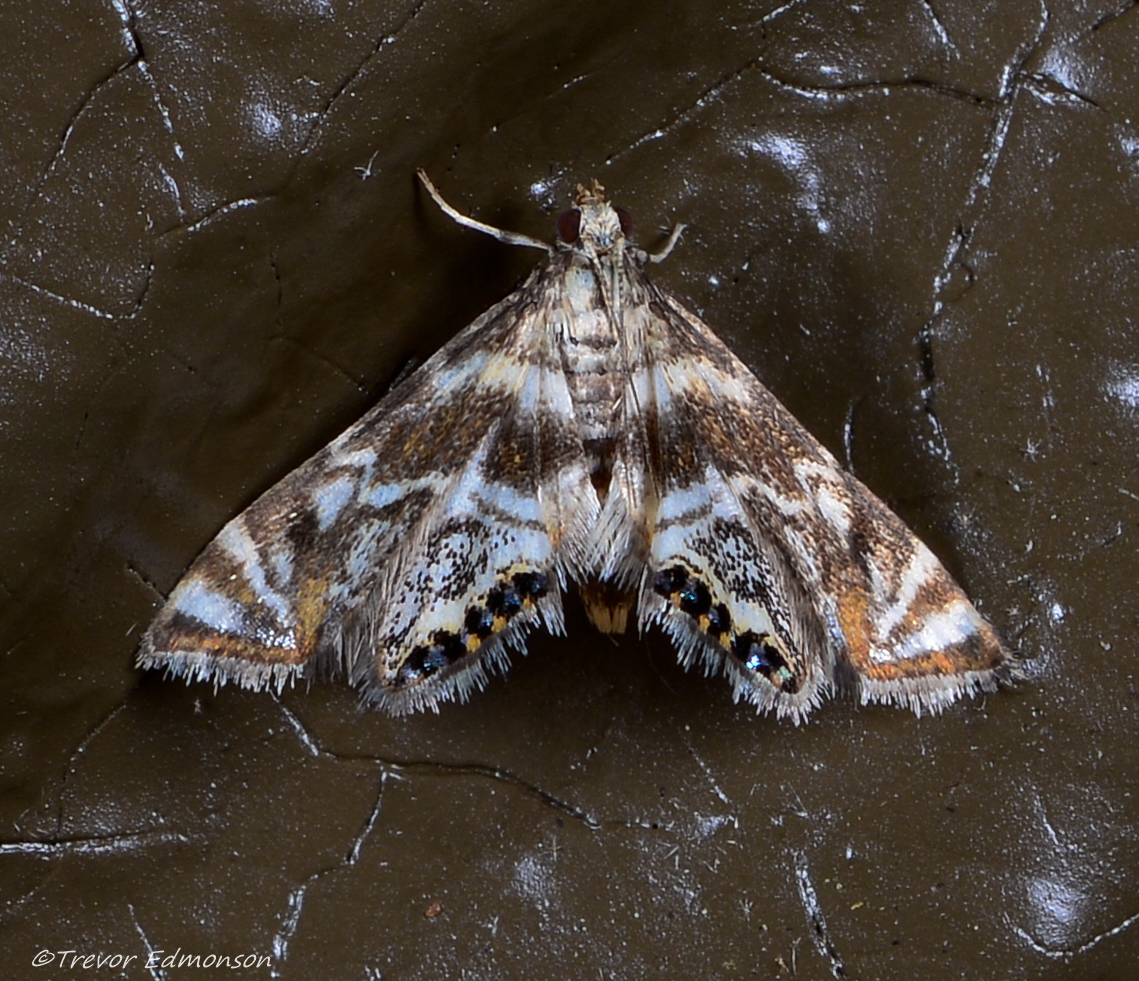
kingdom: Animalia
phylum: Arthropoda
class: Insecta
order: Lepidoptera
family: Crambidae
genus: Petrophila
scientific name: Petrophila canadensis
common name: Canadian petrophila
